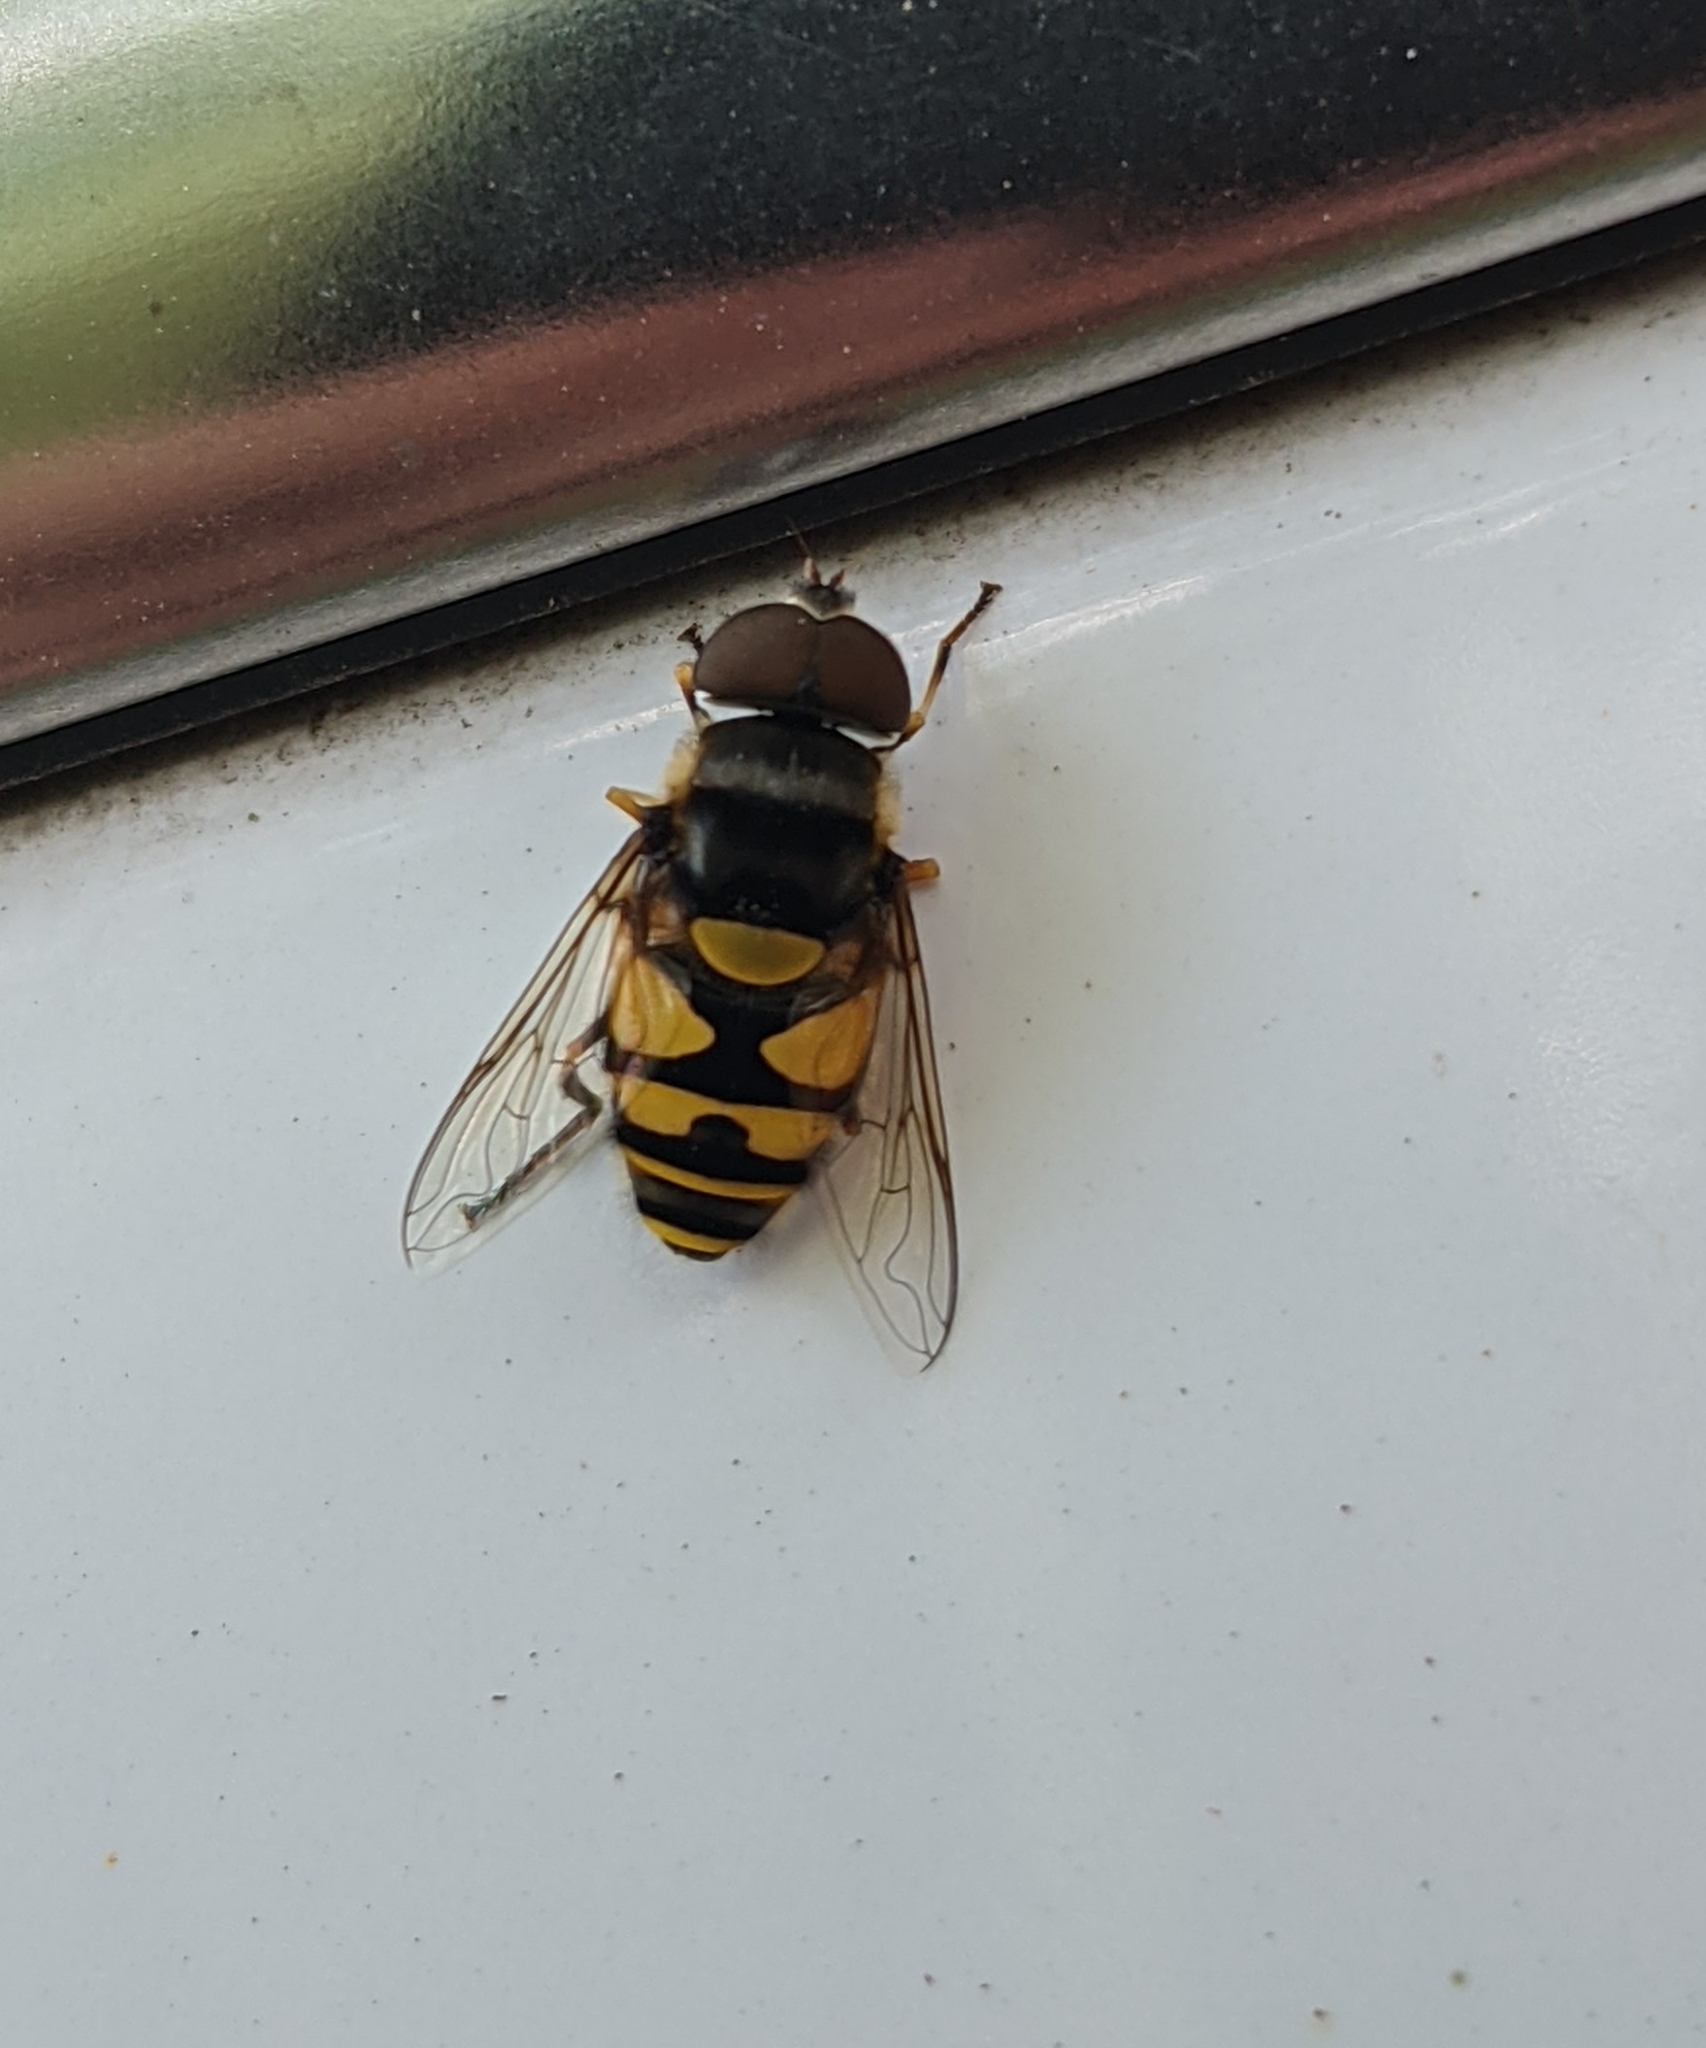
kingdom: Animalia
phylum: Arthropoda
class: Insecta
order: Diptera
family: Syrphidae
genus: Eristalis
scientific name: Eristalis transversa
